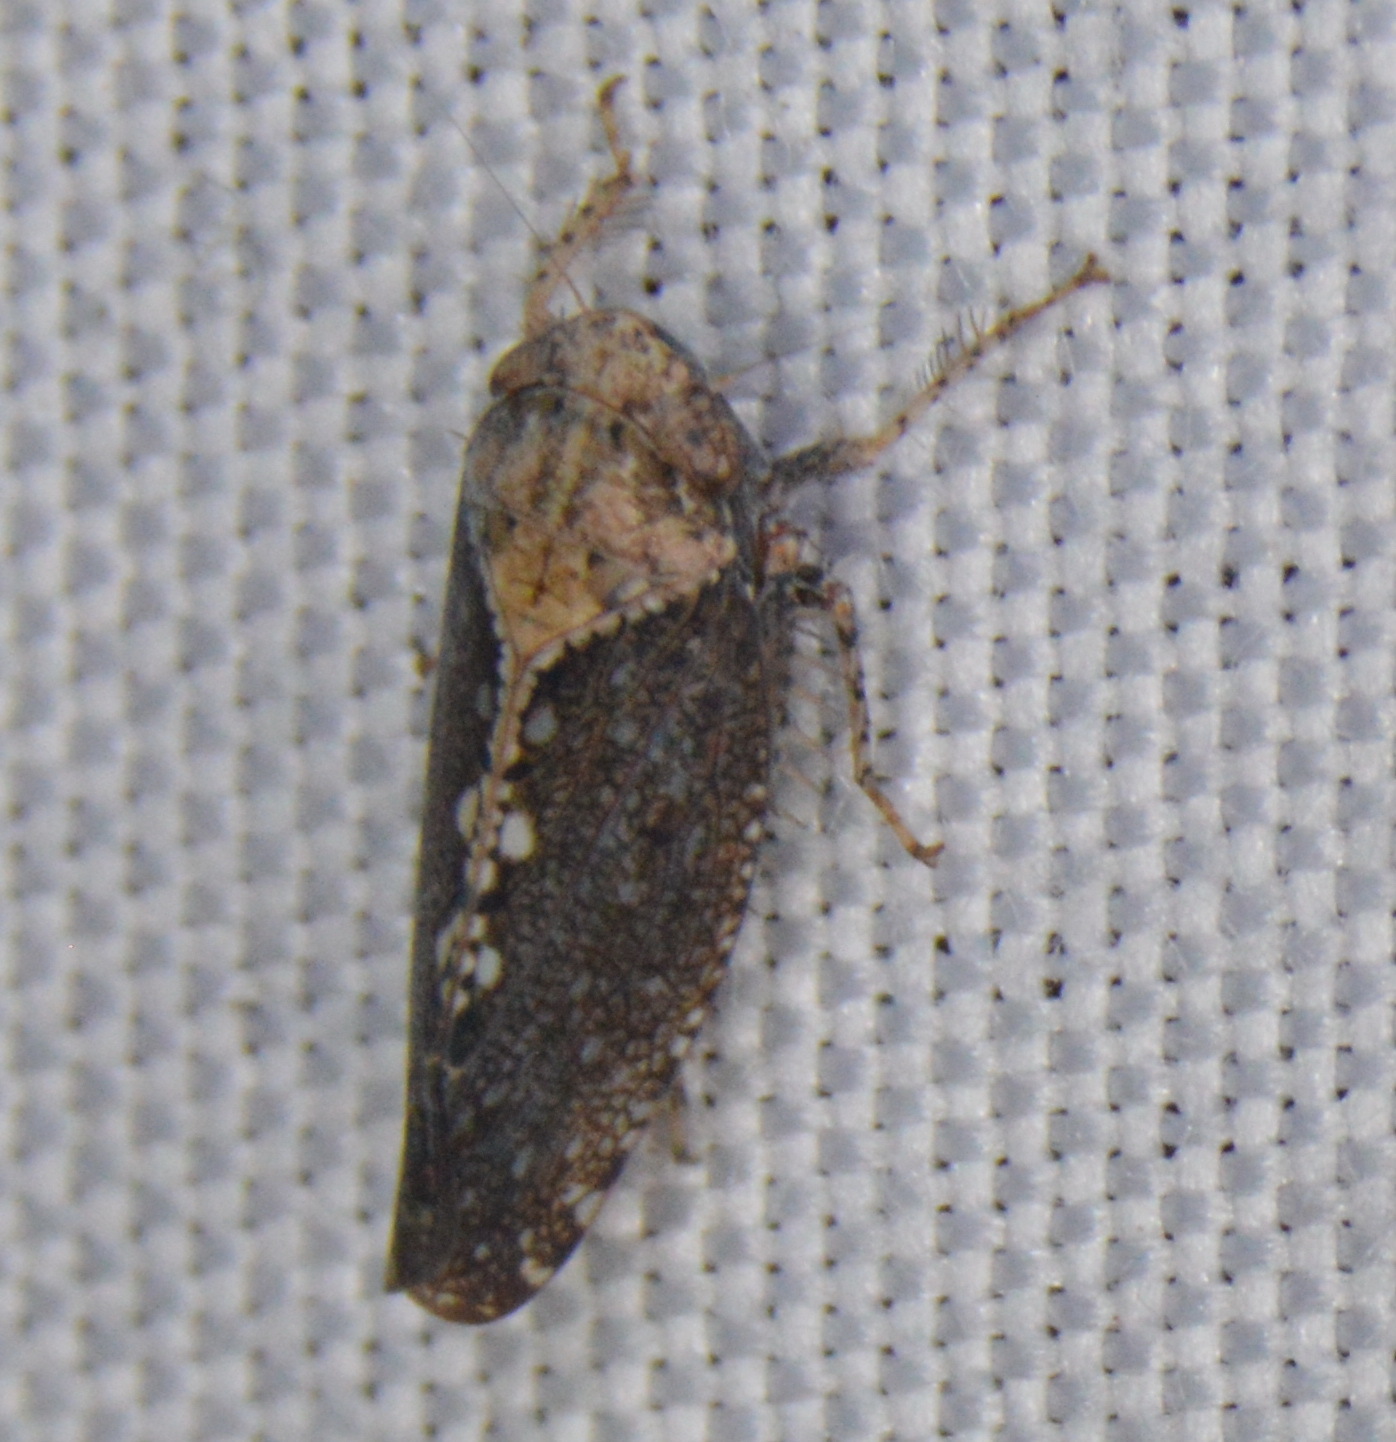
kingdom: Animalia
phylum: Arthropoda
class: Insecta
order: Hemiptera
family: Cicadellidae
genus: Excultanus
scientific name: Excultanus excultus
